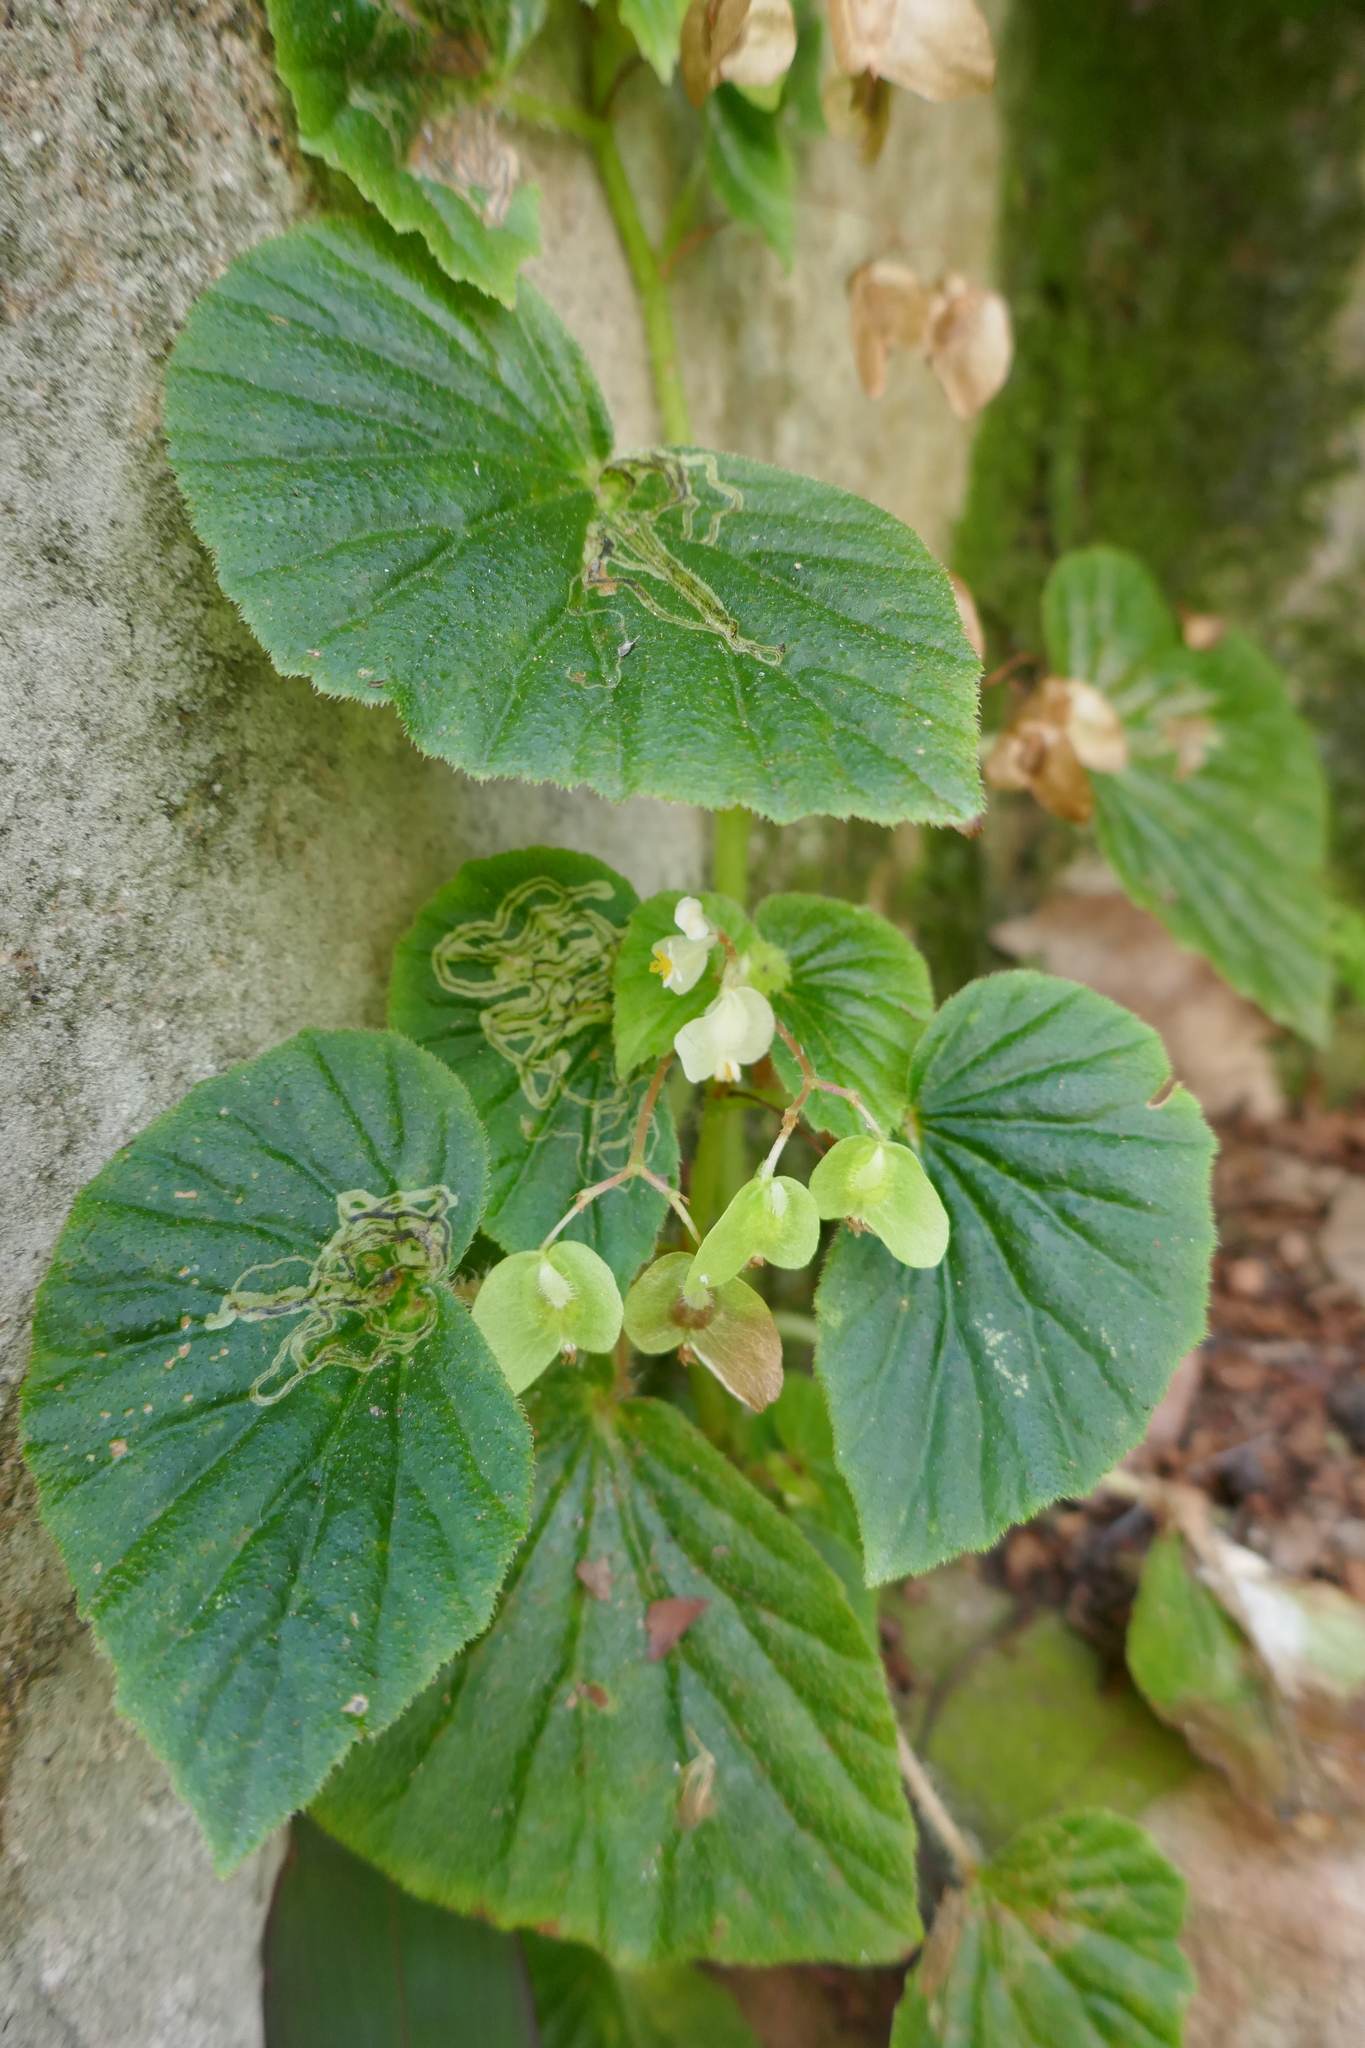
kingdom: Plantae
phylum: Tracheophyta
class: Magnoliopsida
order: Cucurbitales
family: Begoniaceae
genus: Begonia
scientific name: Begonia hirtella
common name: Brazilian begonia
